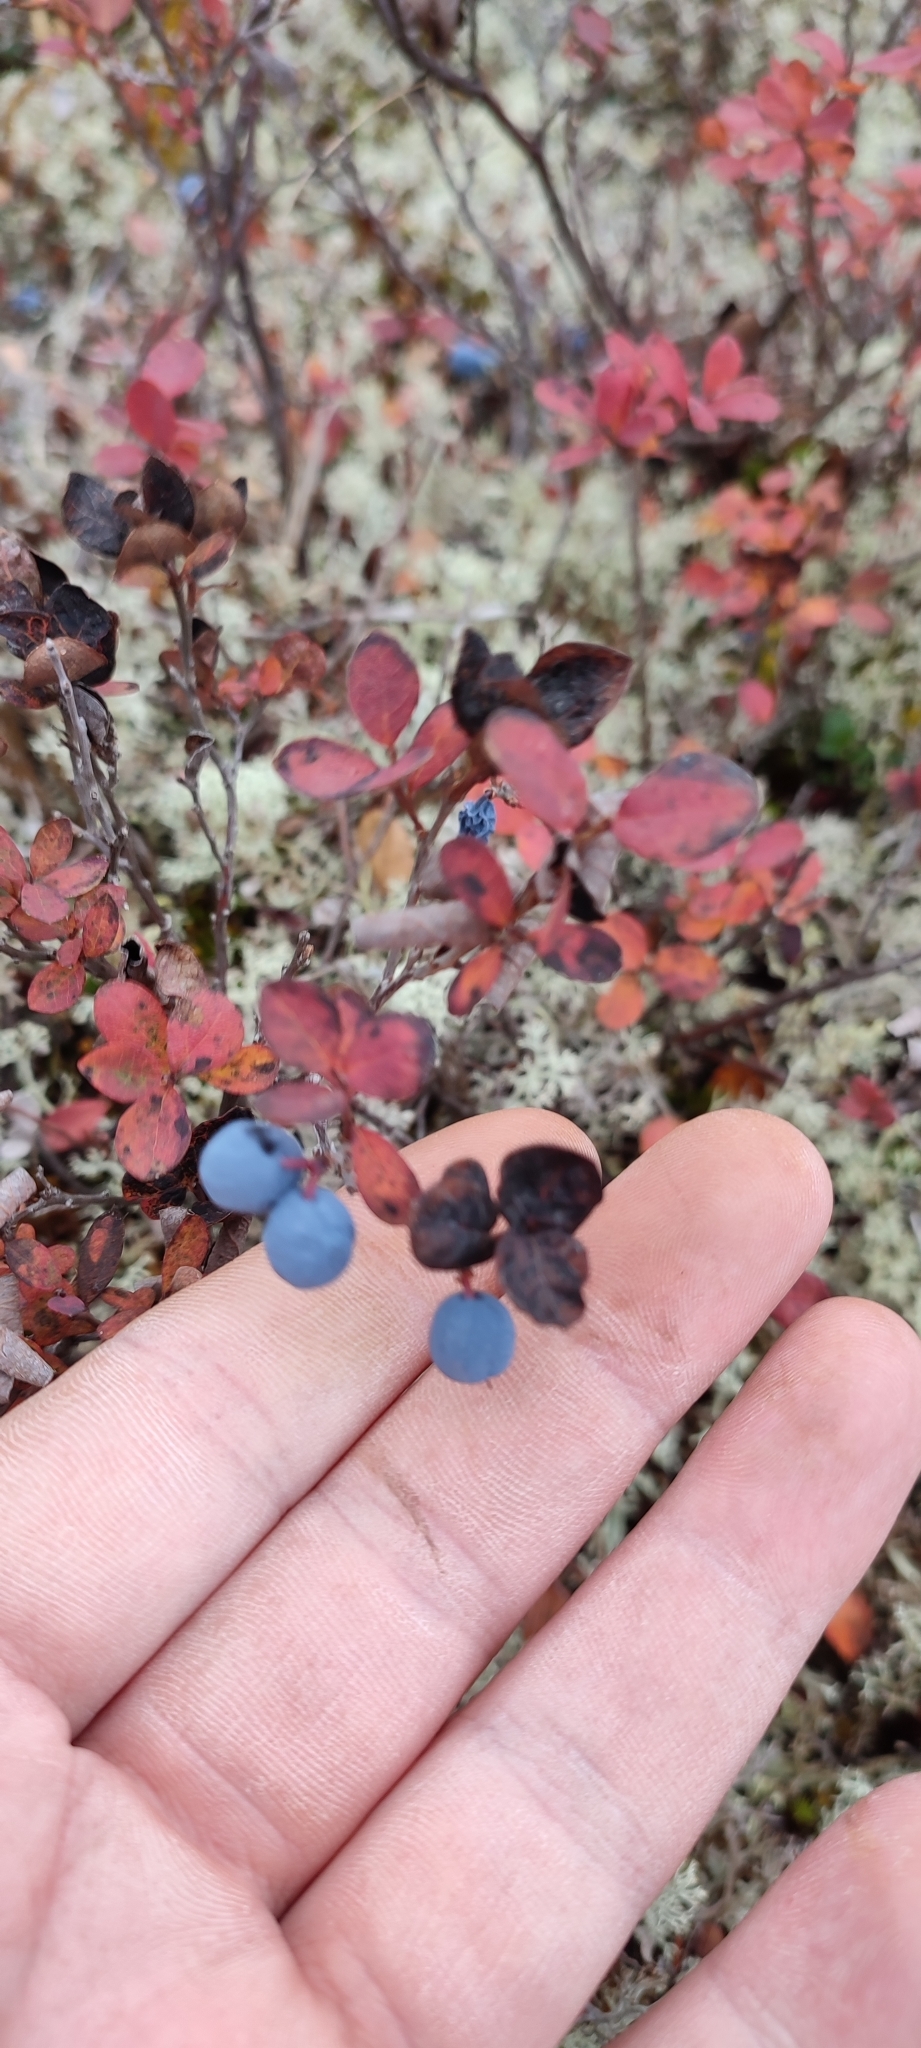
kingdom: Plantae
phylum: Tracheophyta
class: Magnoliopsida
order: Ericales
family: Ericaceae
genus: Vaccinium
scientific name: Vaccinium uliginosum
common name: Bog bilberry
